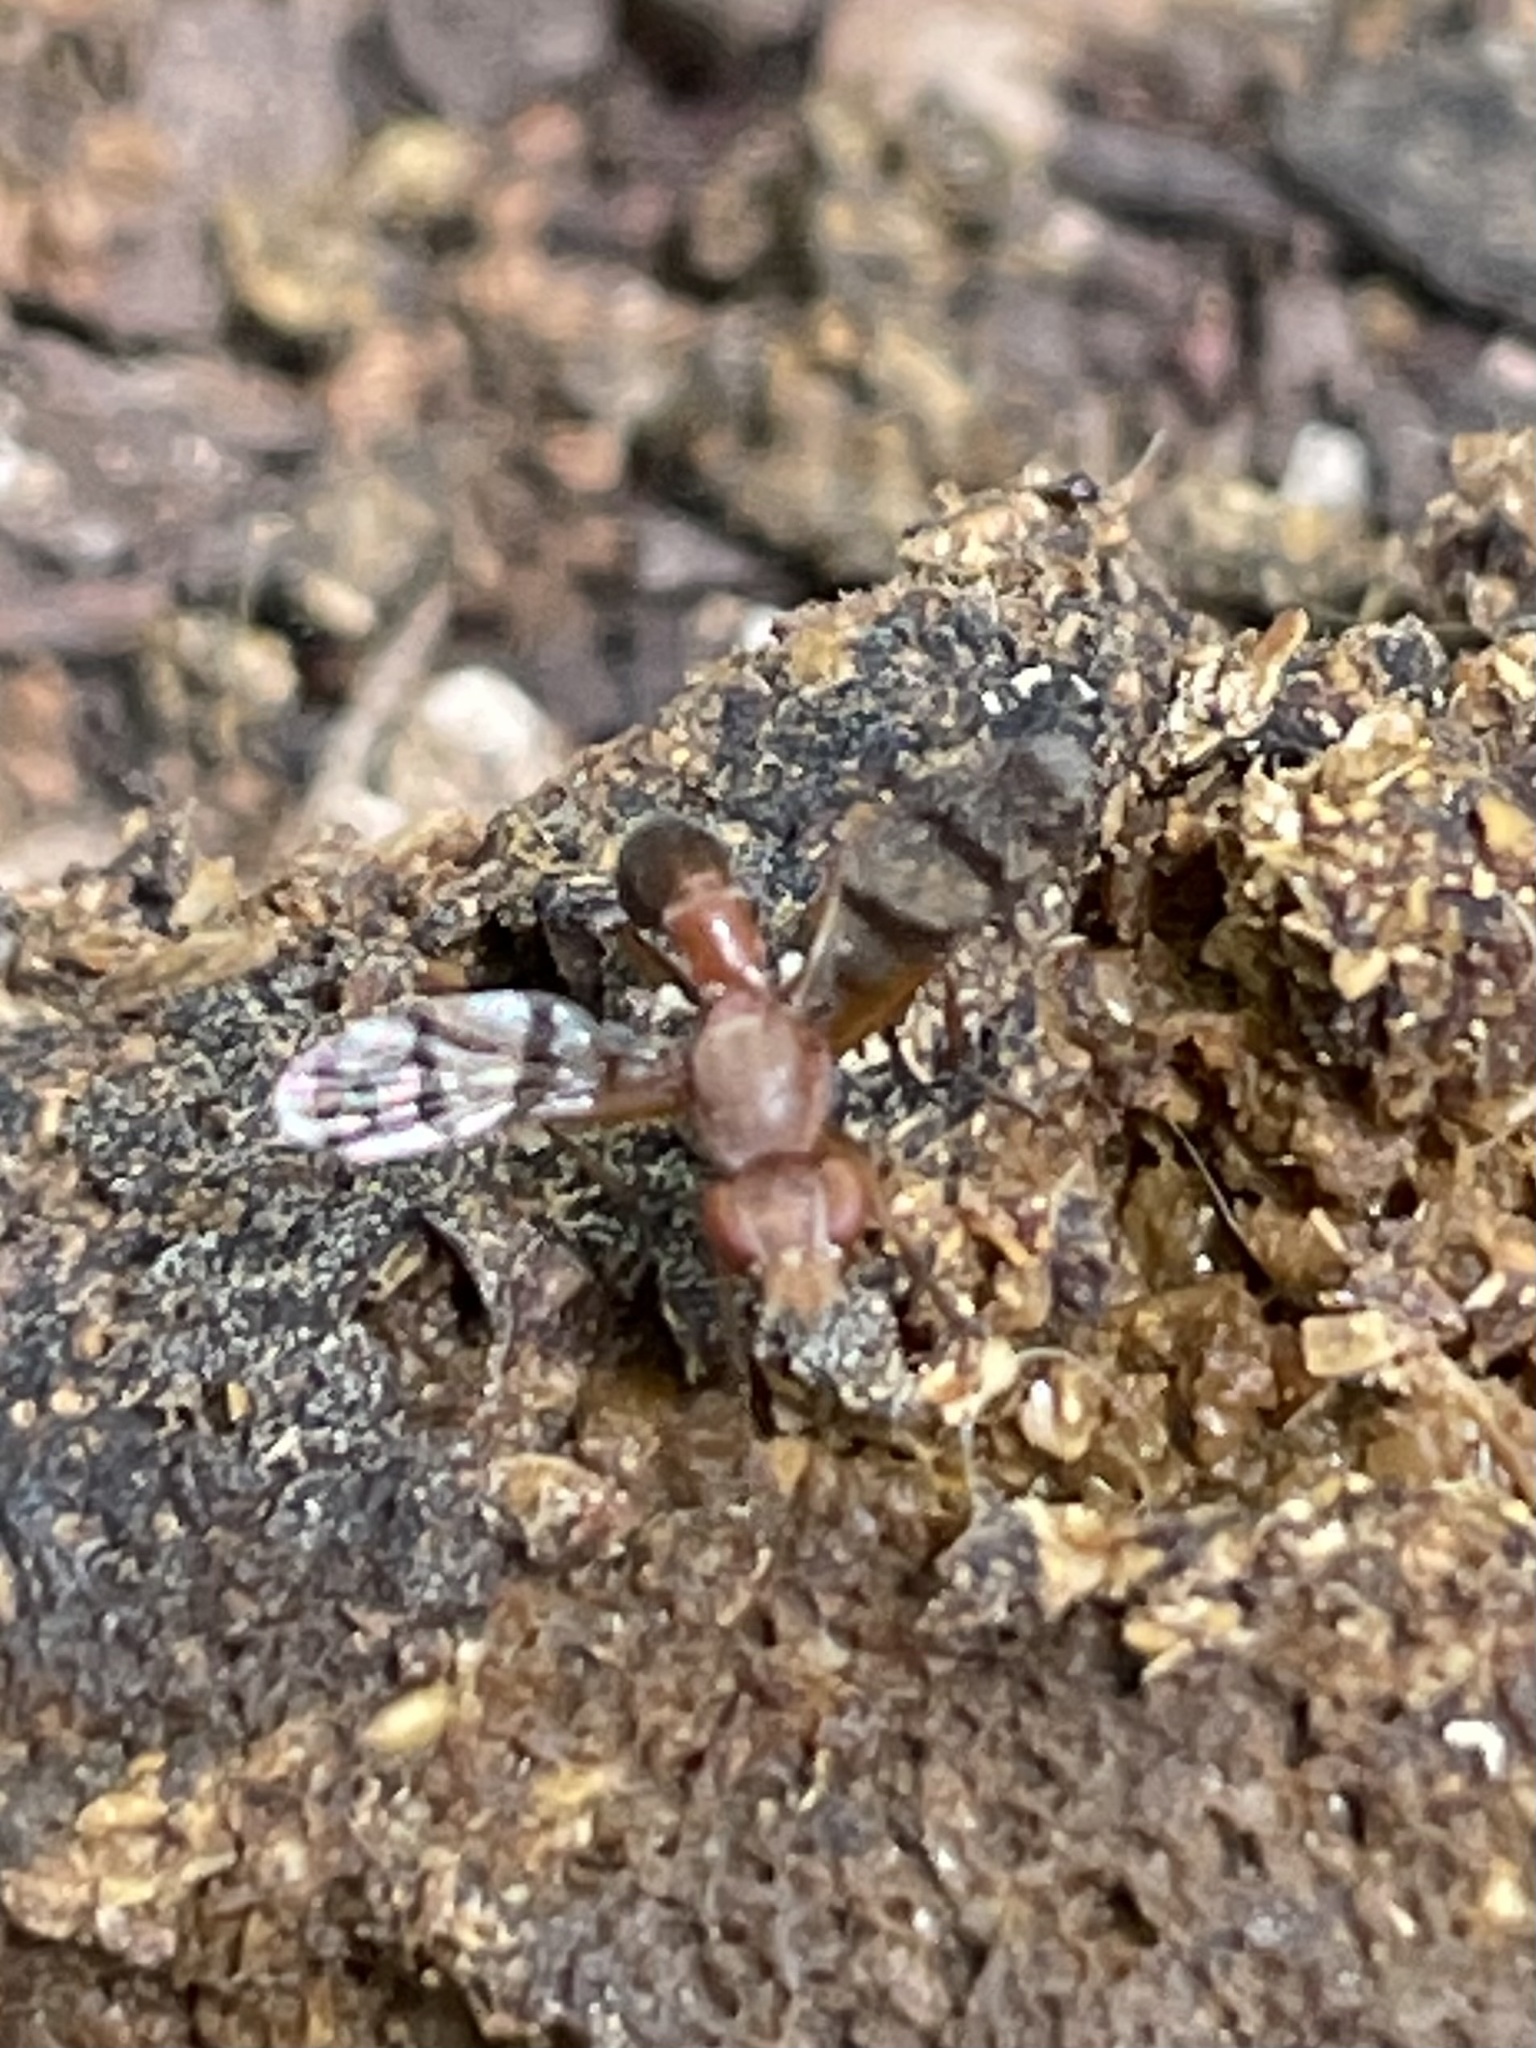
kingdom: Animalia
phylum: Arthropoda
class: Insecta
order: Diptera
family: Richardiidae
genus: Automola
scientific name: Automola rufa
